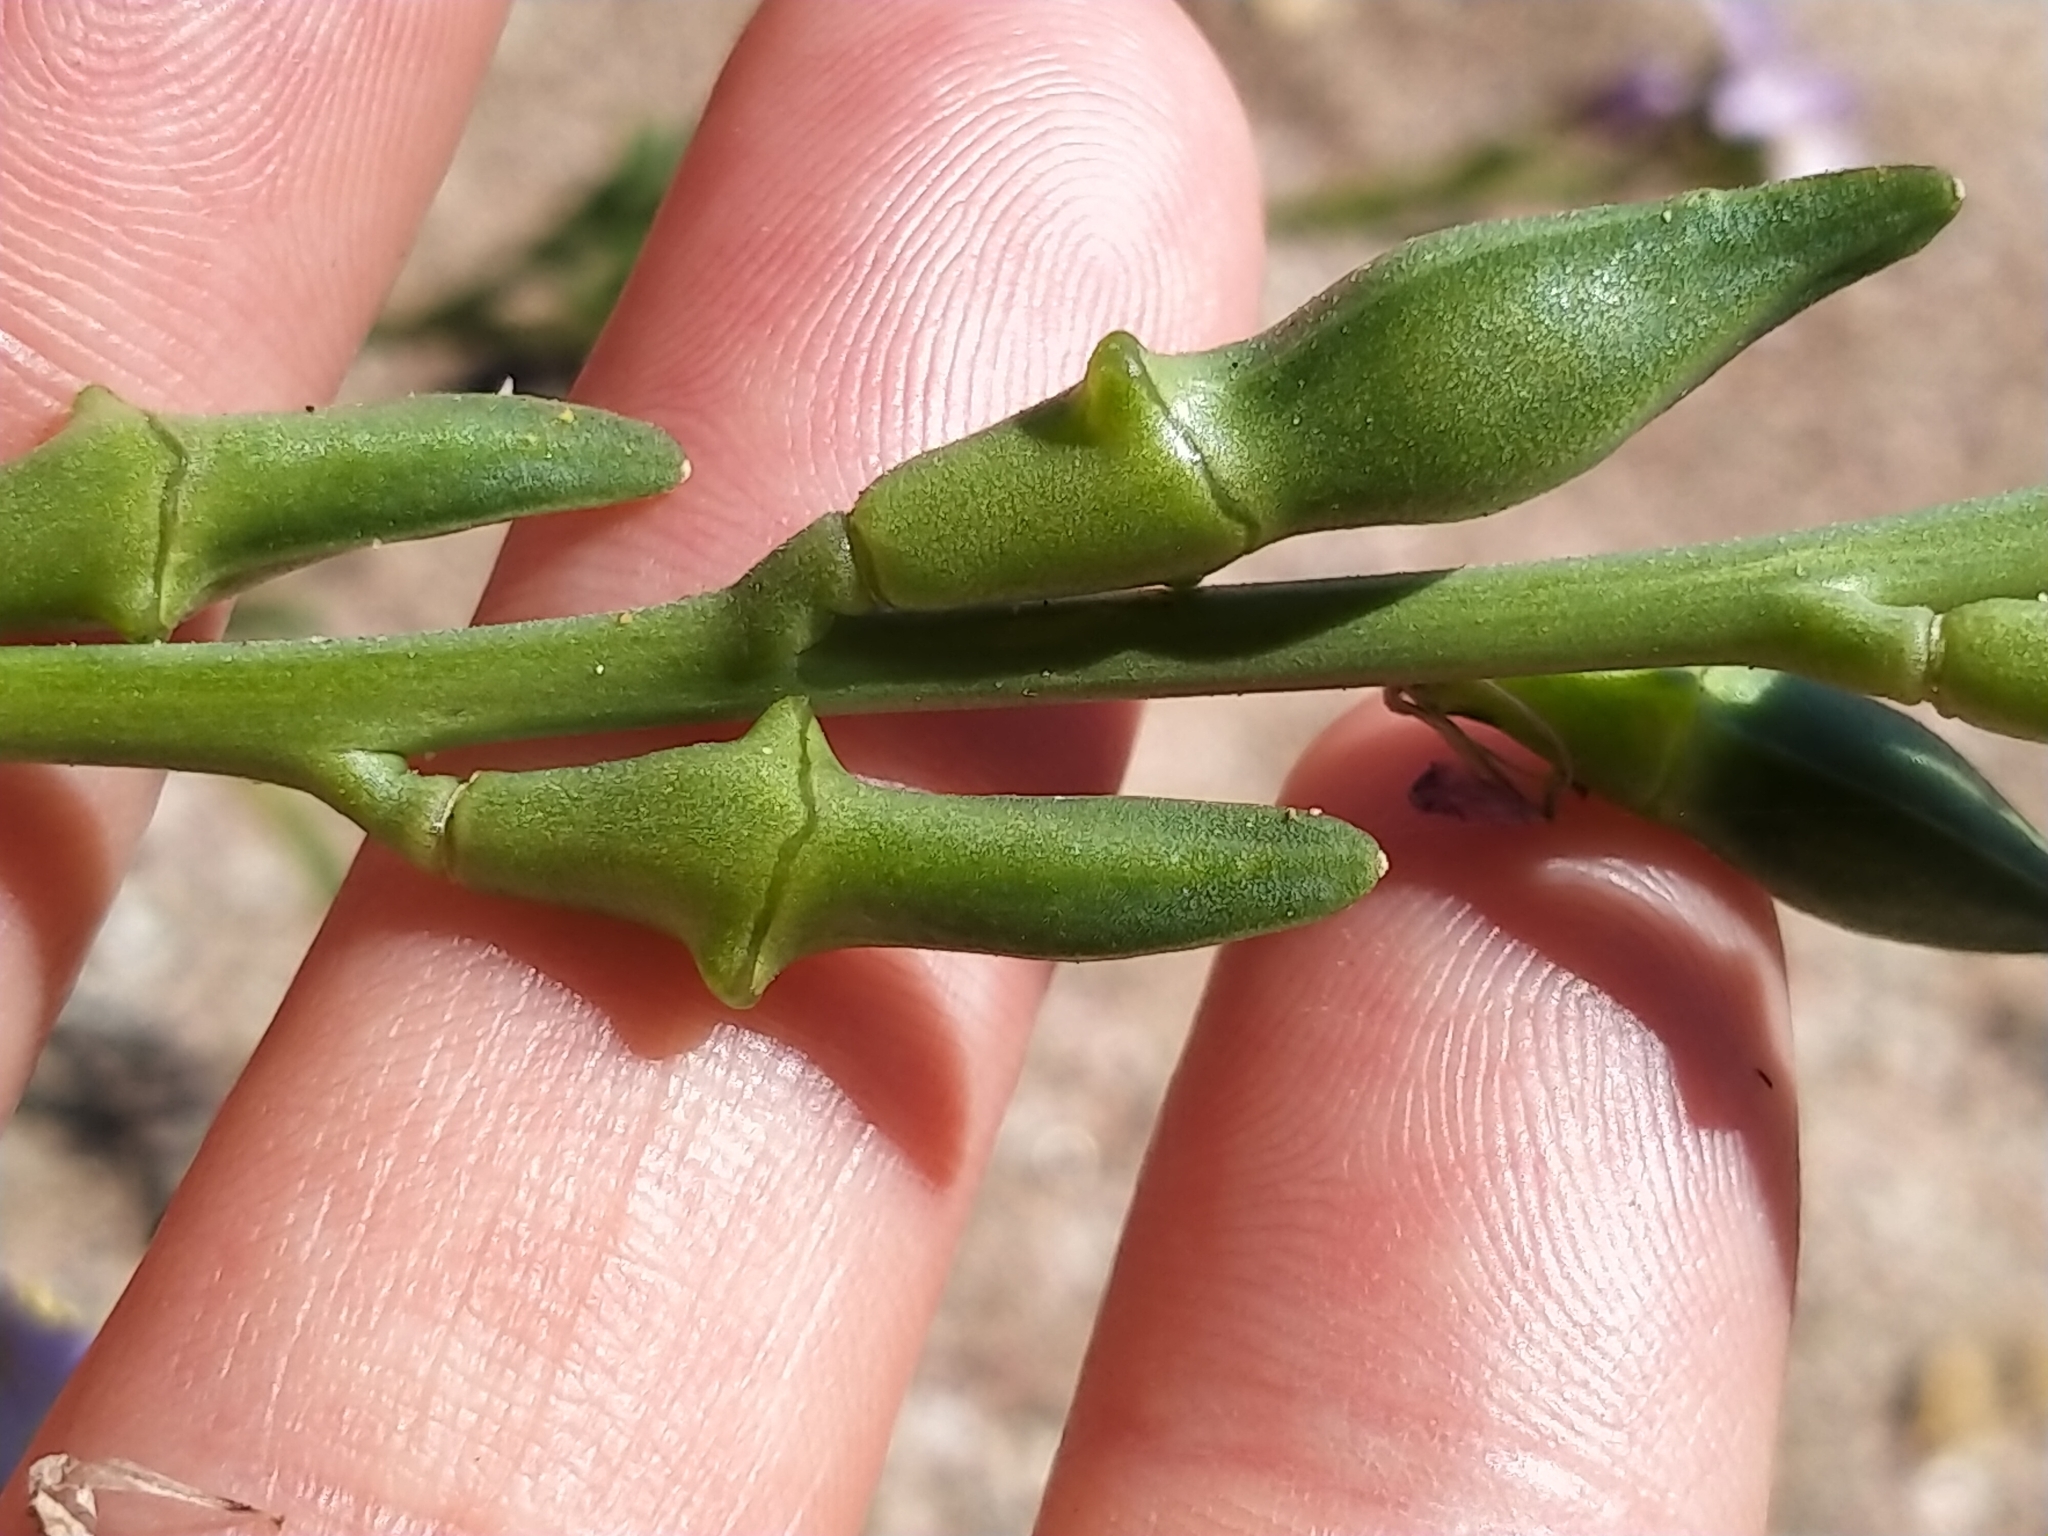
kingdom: Plantae
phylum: Tracheophyta
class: Magnoliopsida
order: Brassicales
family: Brassicaceae
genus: Cakile
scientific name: Cakile maritima
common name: Sea rocket
